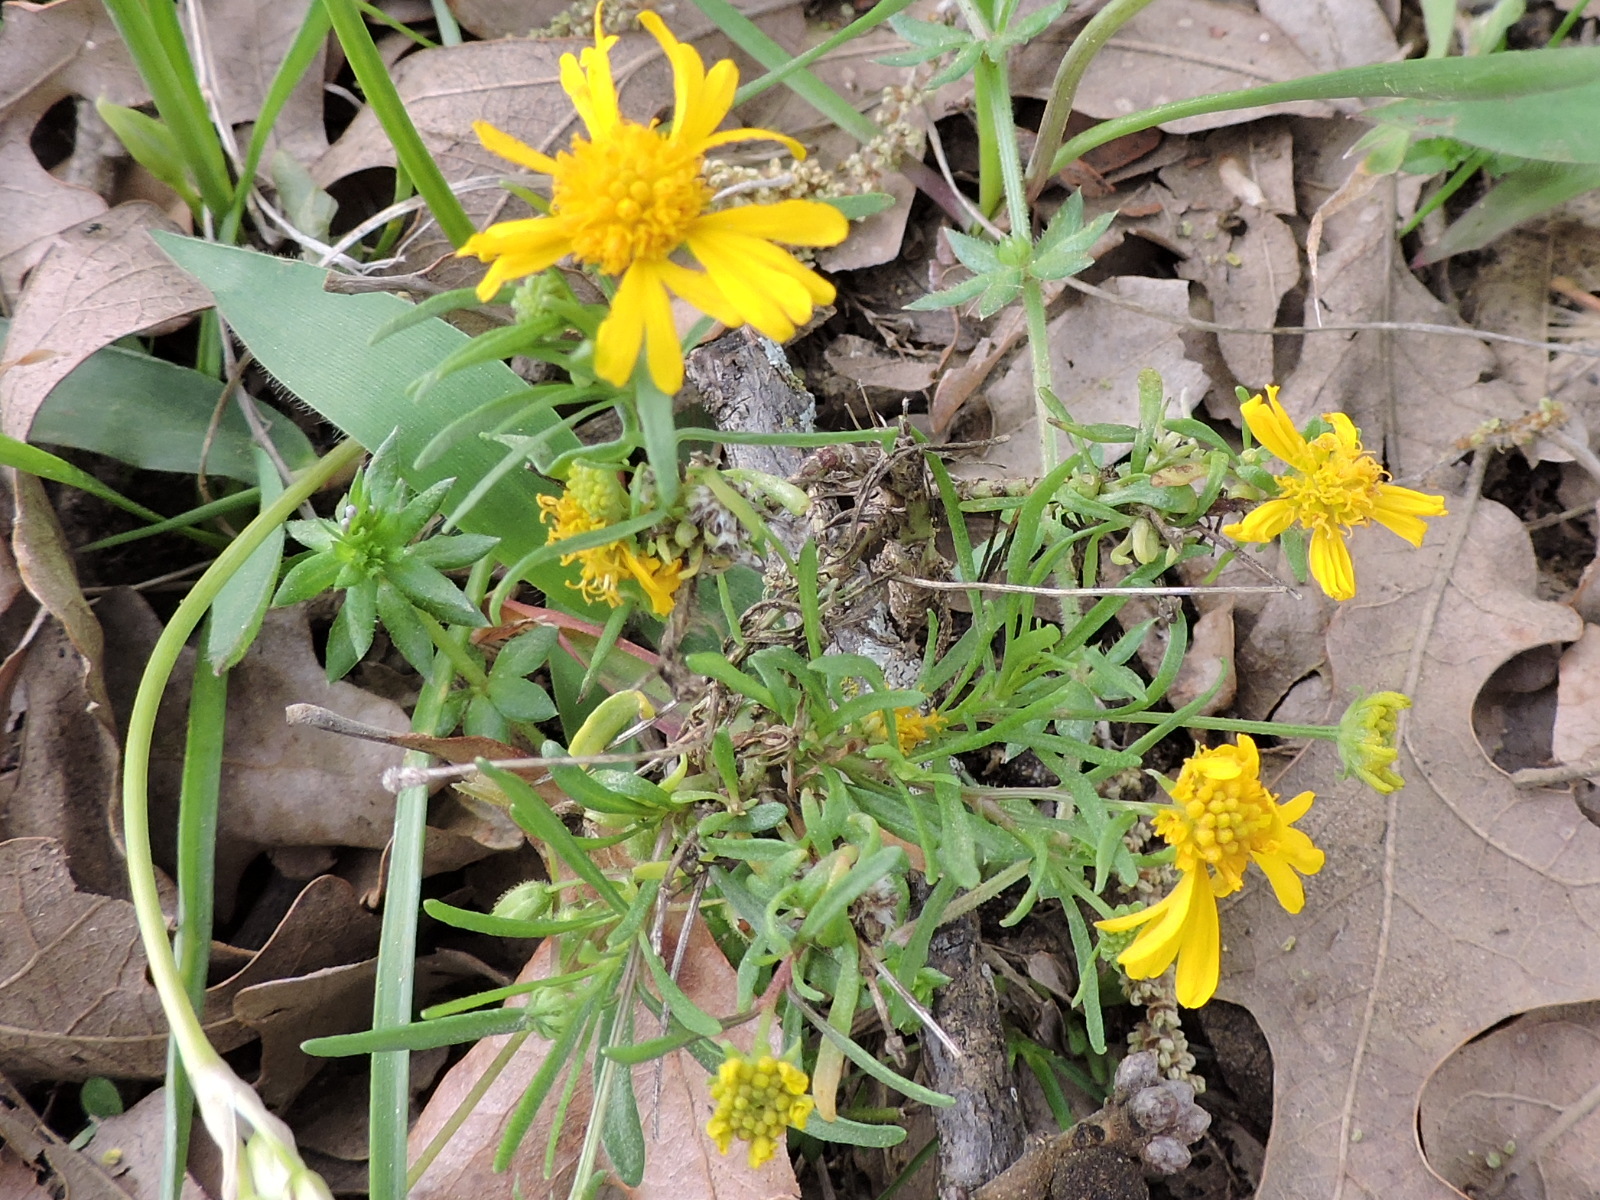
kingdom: Plantae
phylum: Tracheophyta
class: Magnoliopsida
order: Asterales
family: Asteraceae
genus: Helenium
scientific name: Helenium amarum
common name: Bitter sneezeweed
